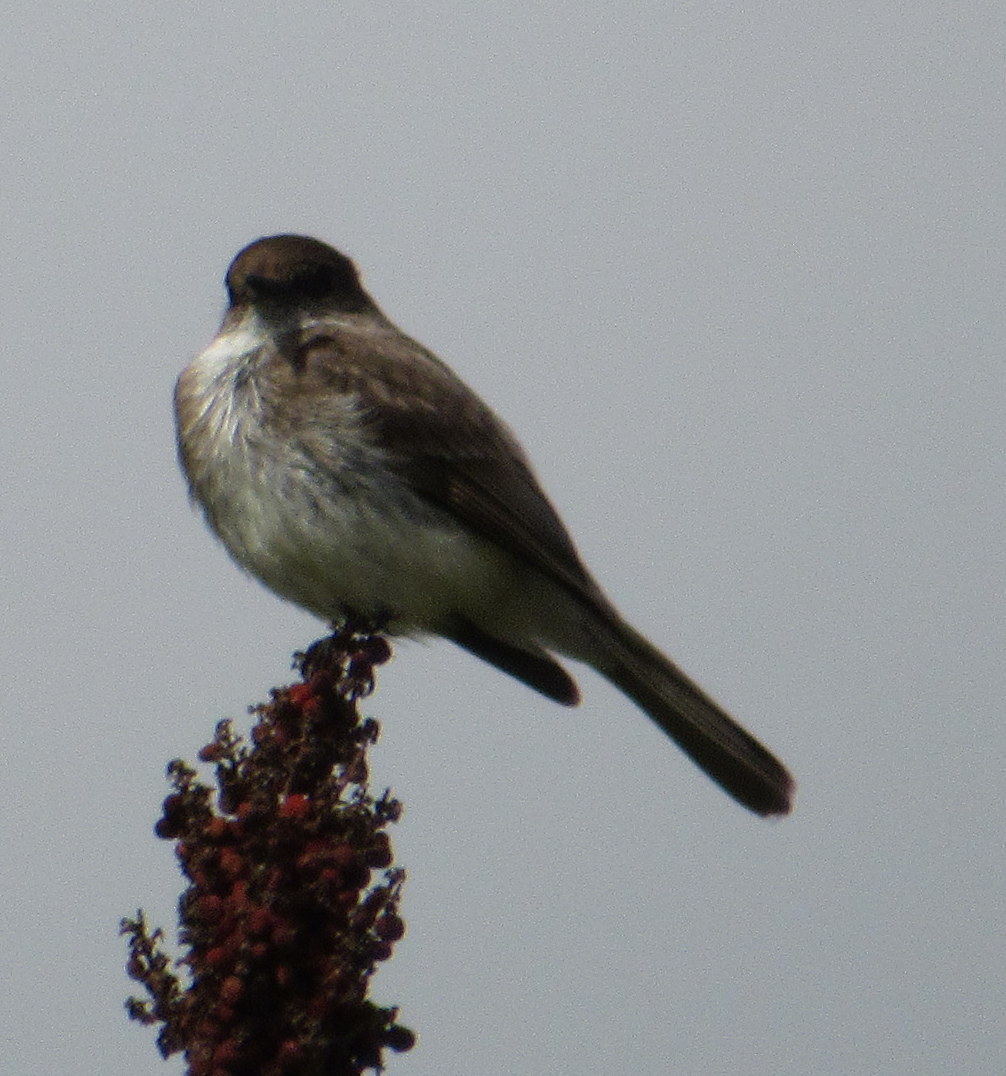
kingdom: Animalia
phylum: Chordata
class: Aves
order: Passeriformes
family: Tyrannidae
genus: Sayornis
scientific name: Sayornis phoebe
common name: Eastern phoebe
